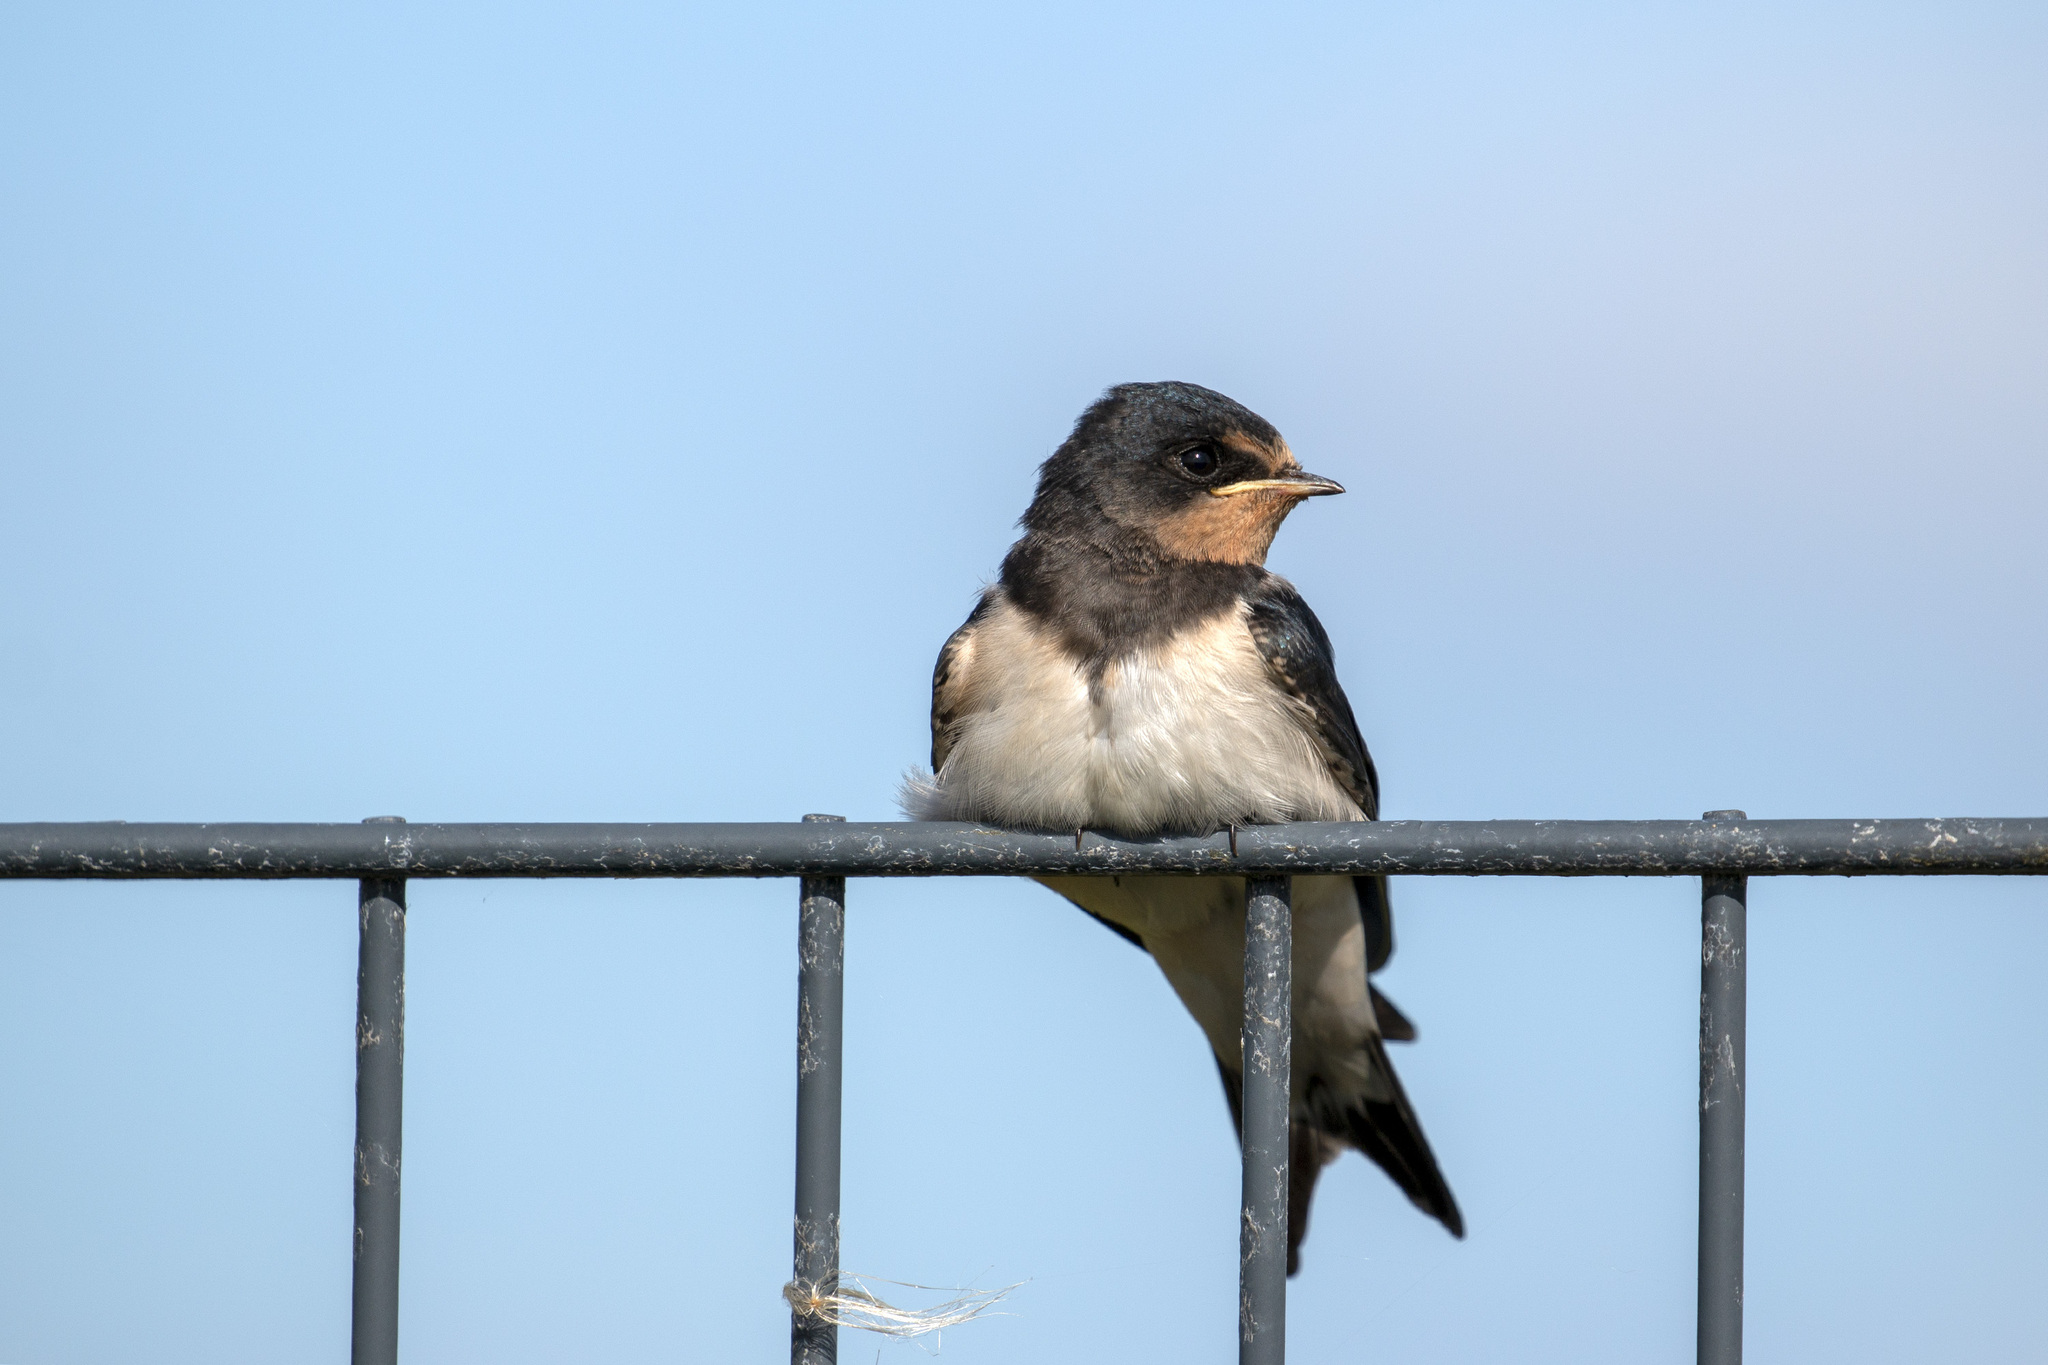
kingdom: Animalia
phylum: Chordata
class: Aves
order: Passeriformes
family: Hirundinidae
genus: Hirundo
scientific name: Hirundo rustica
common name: Barn swallow
